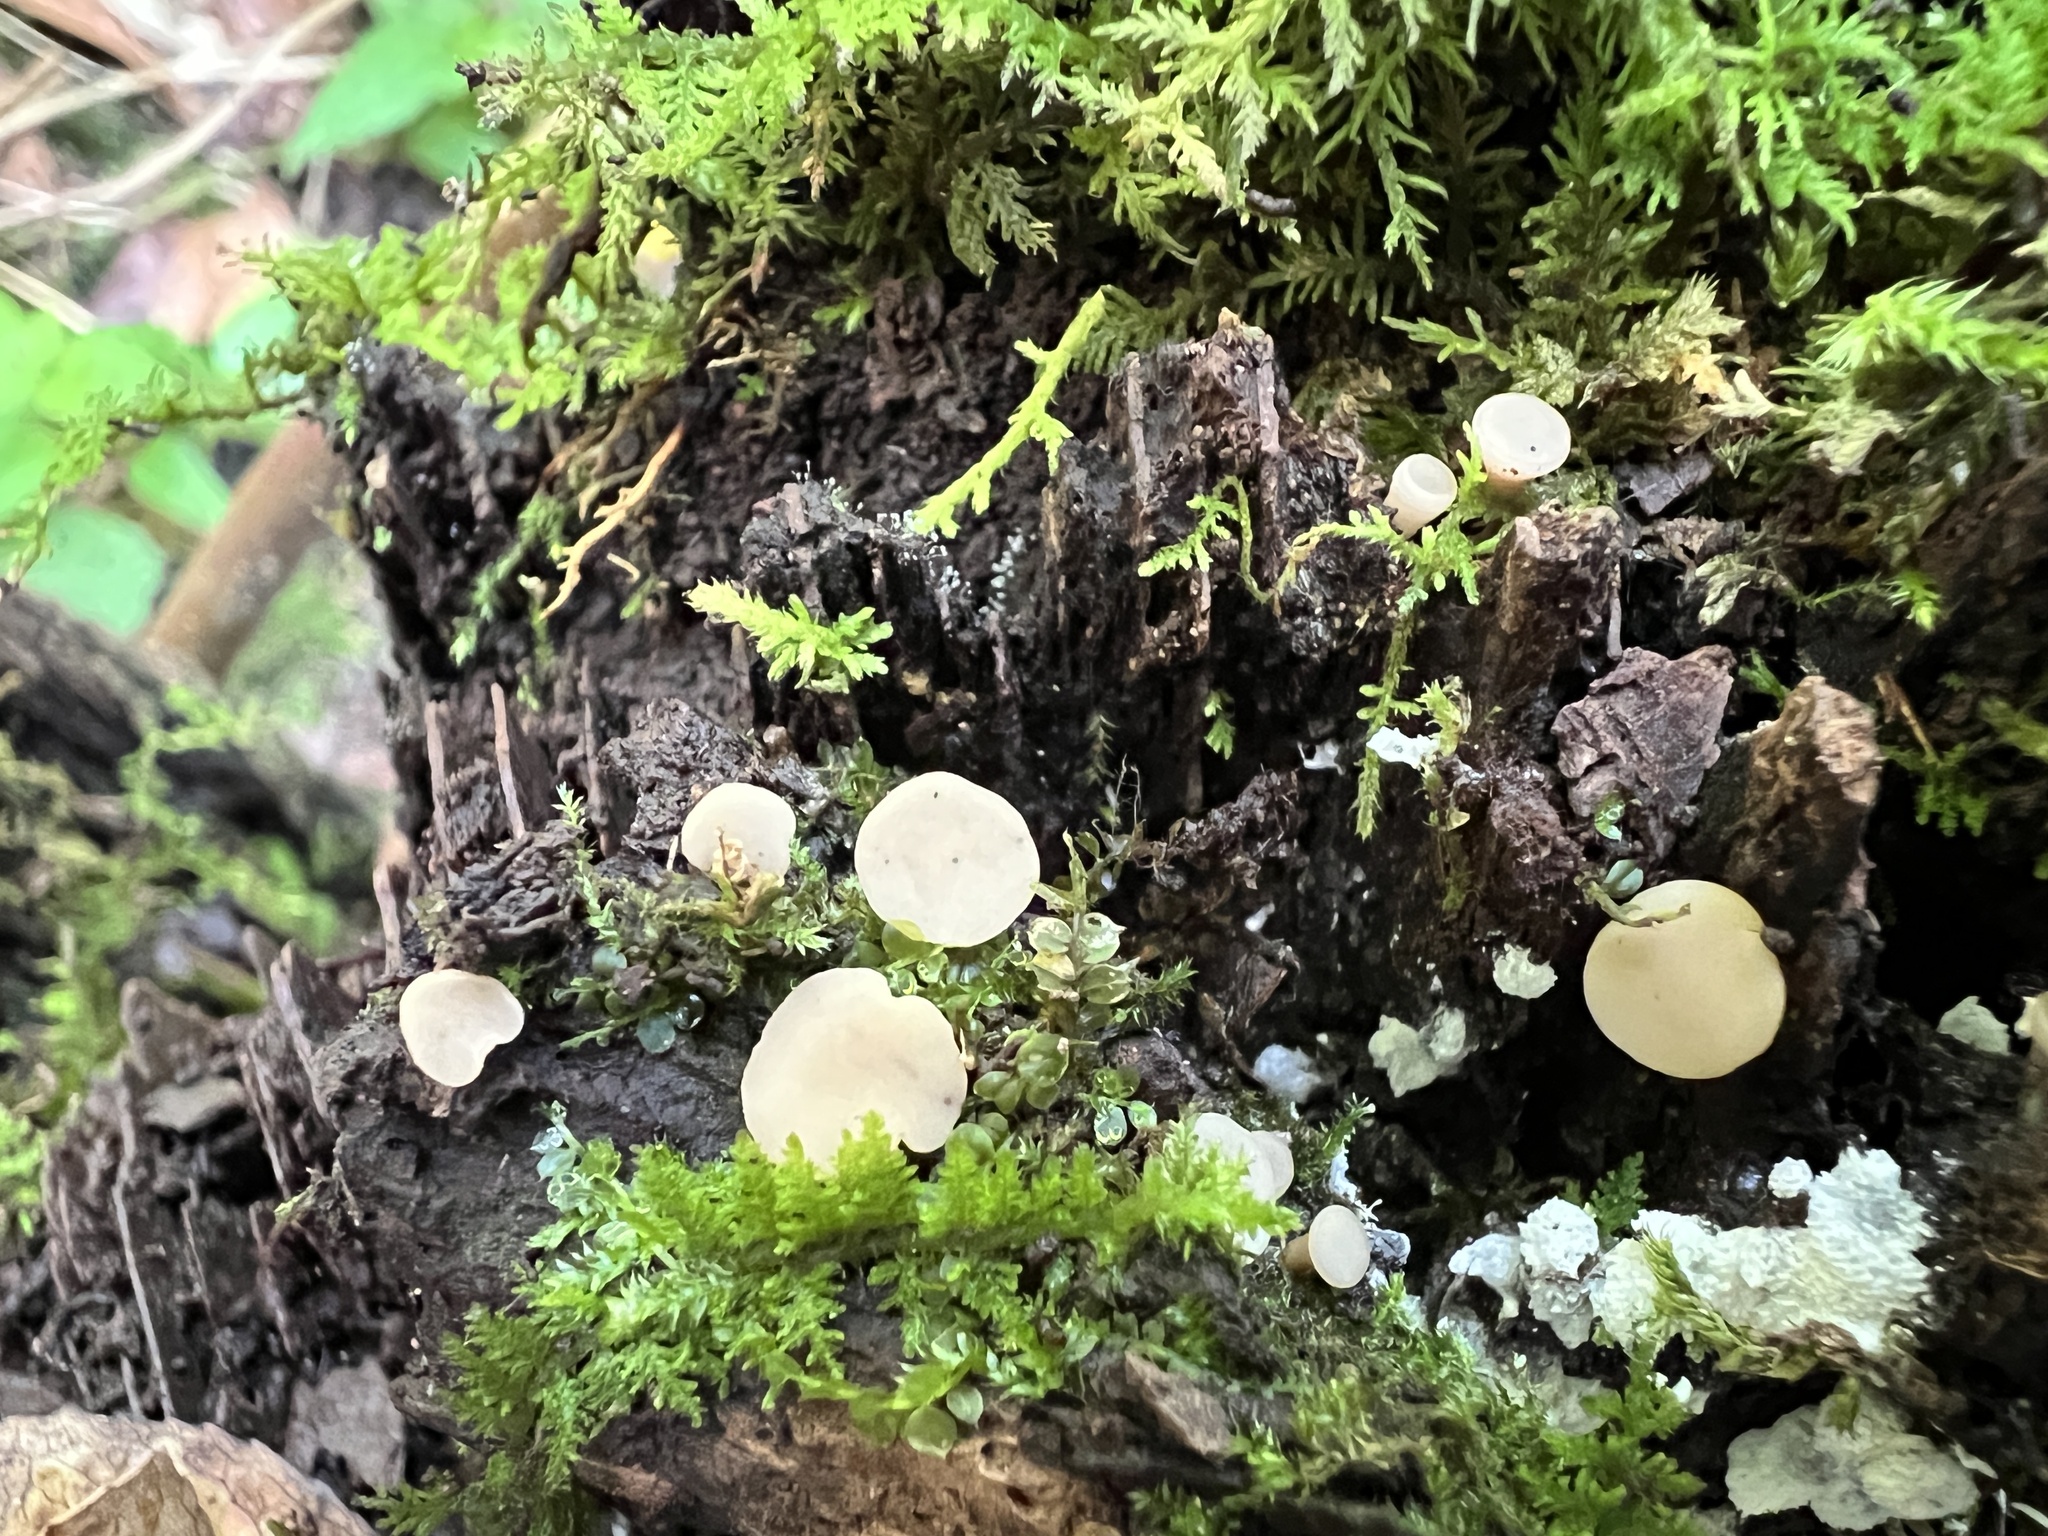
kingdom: Fungi
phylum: Ascomycota
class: Leotiomycetes
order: Helotiales
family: Helotiaceae
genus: Tatraea
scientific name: Tatraea macrospora
